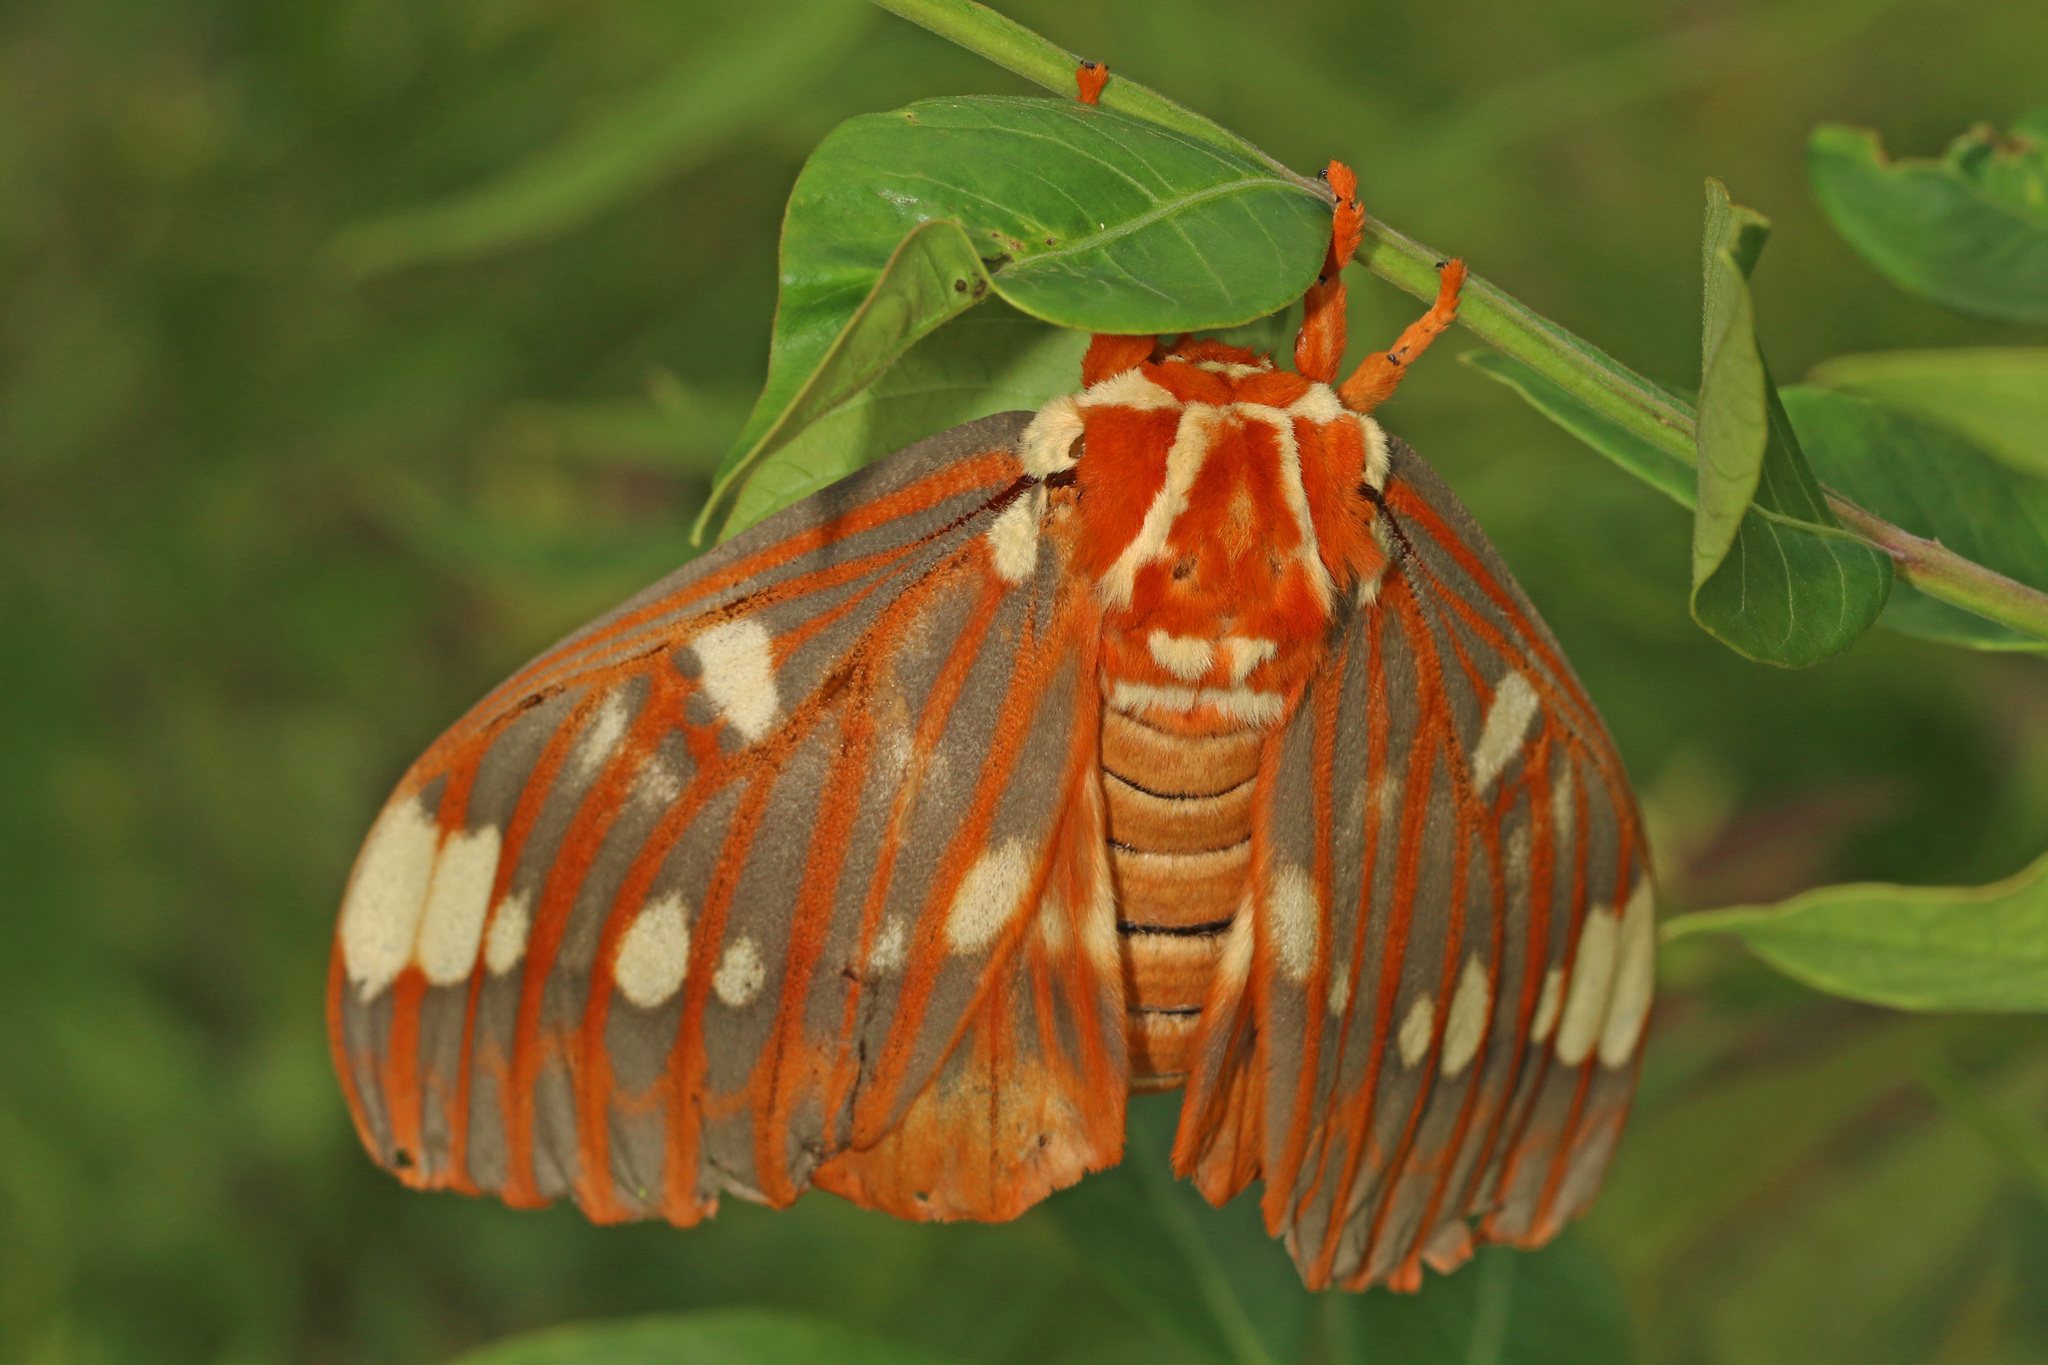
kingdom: Animalia
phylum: Arthropoda
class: Insecta
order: Lepidoptera
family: Saturniidae
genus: Citheronia
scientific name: Citheronia regalis
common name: Hickory horned devil
